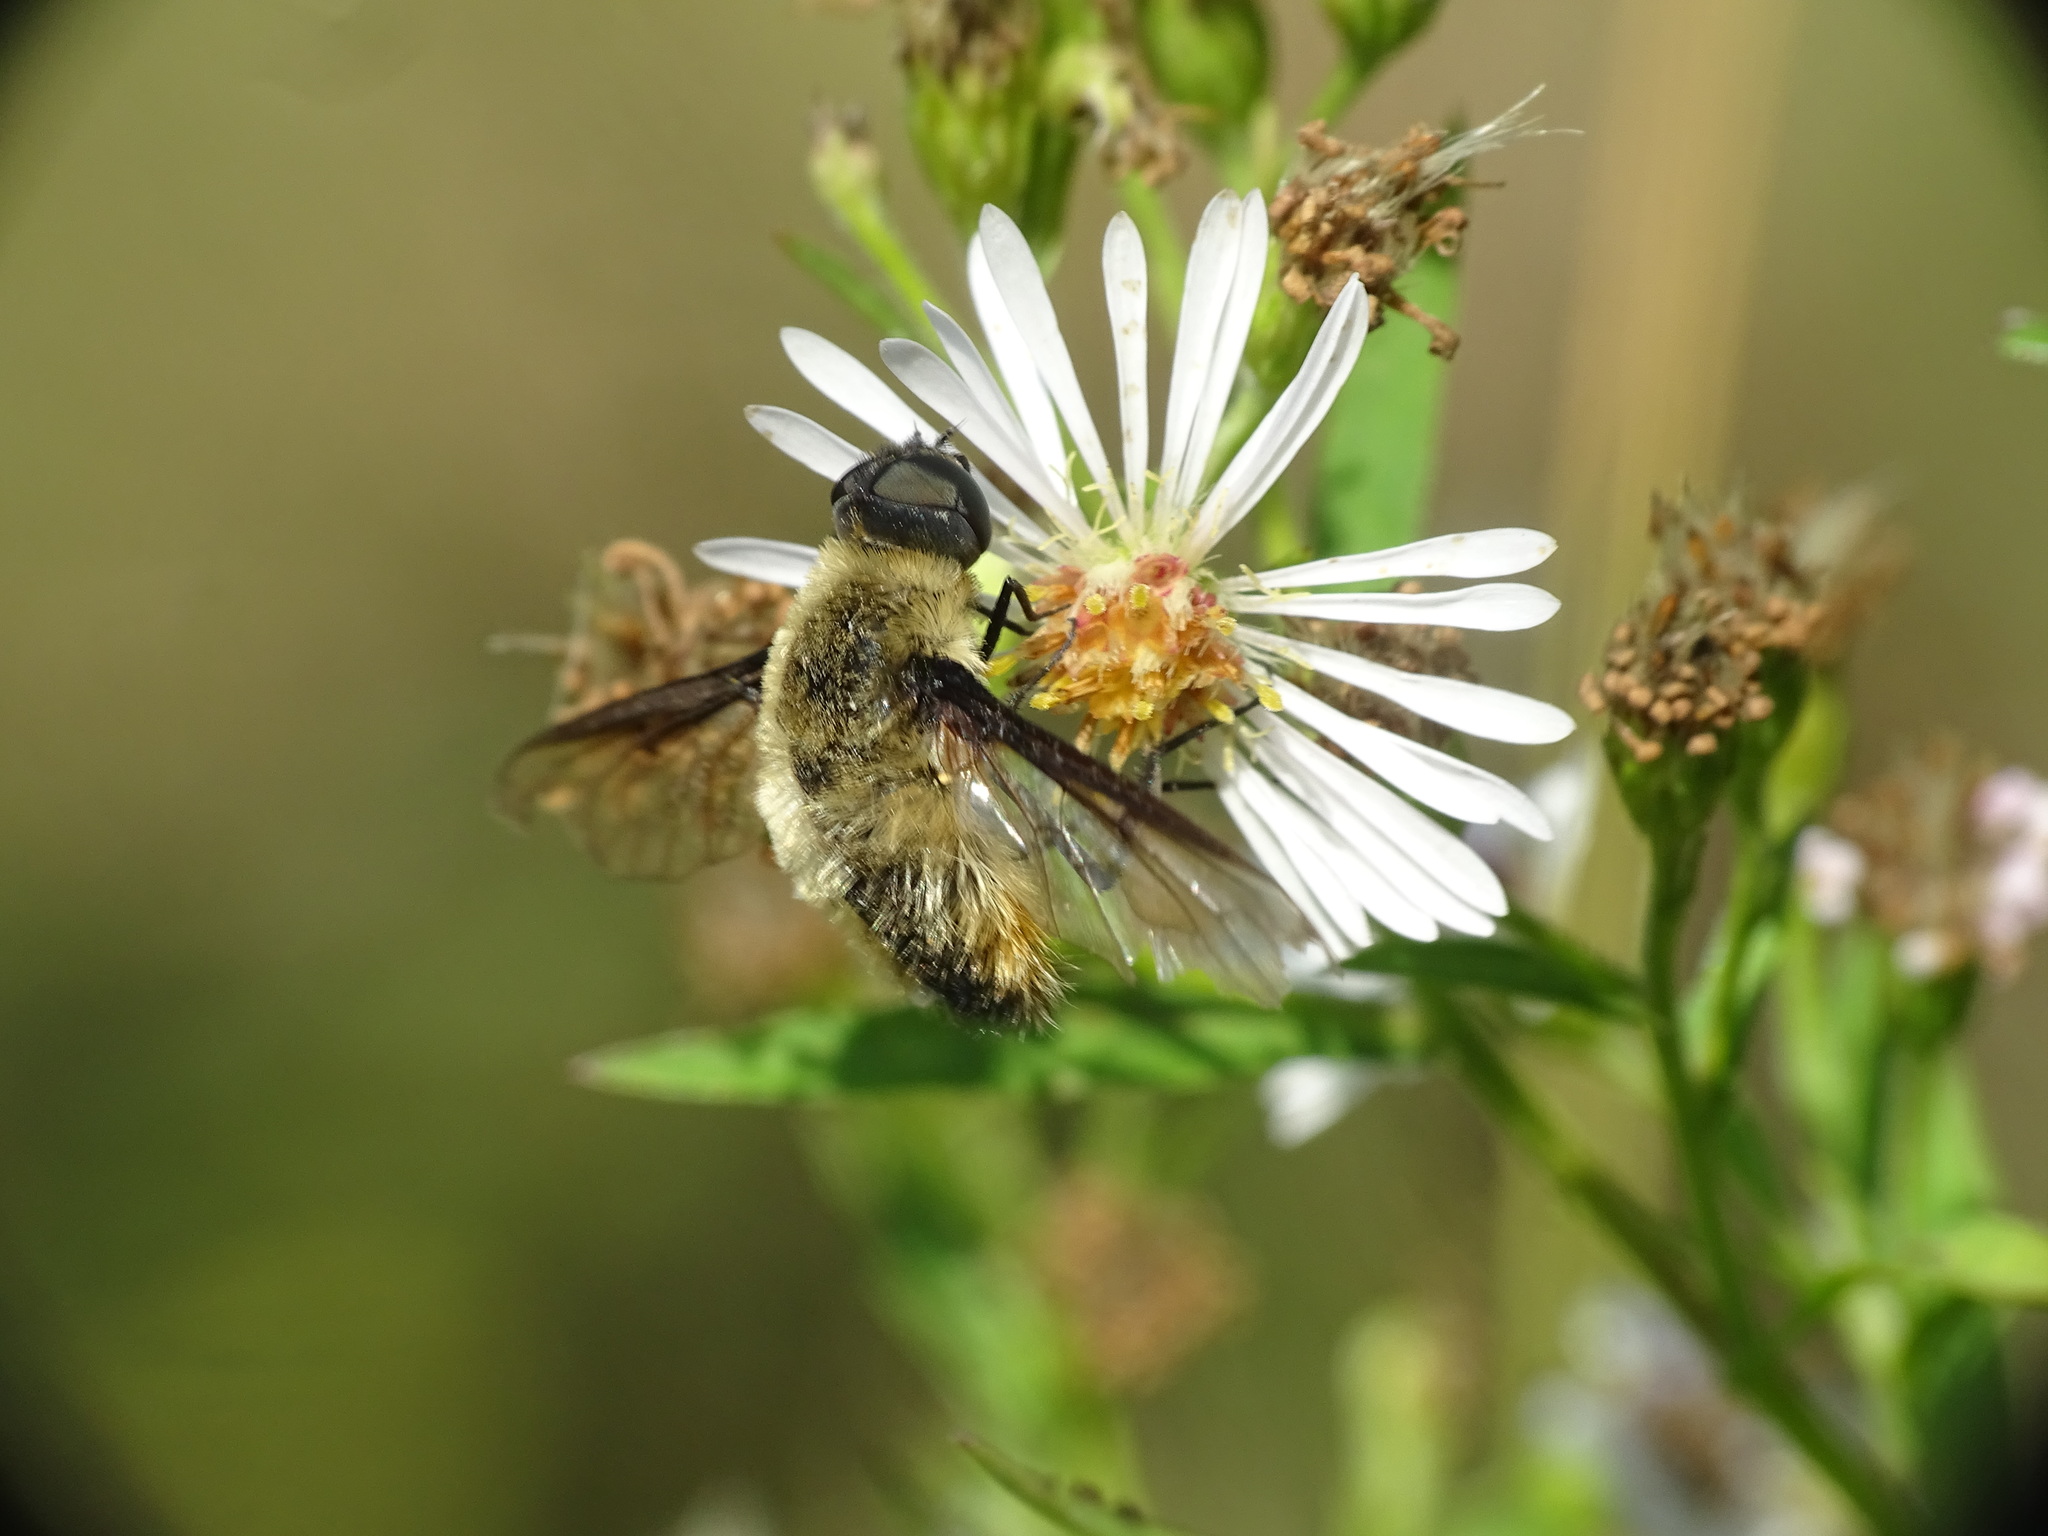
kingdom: Animalia
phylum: Arthropoda
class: Insecta
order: Diptera
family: Bombyliidae
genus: Villa
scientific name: Villa
